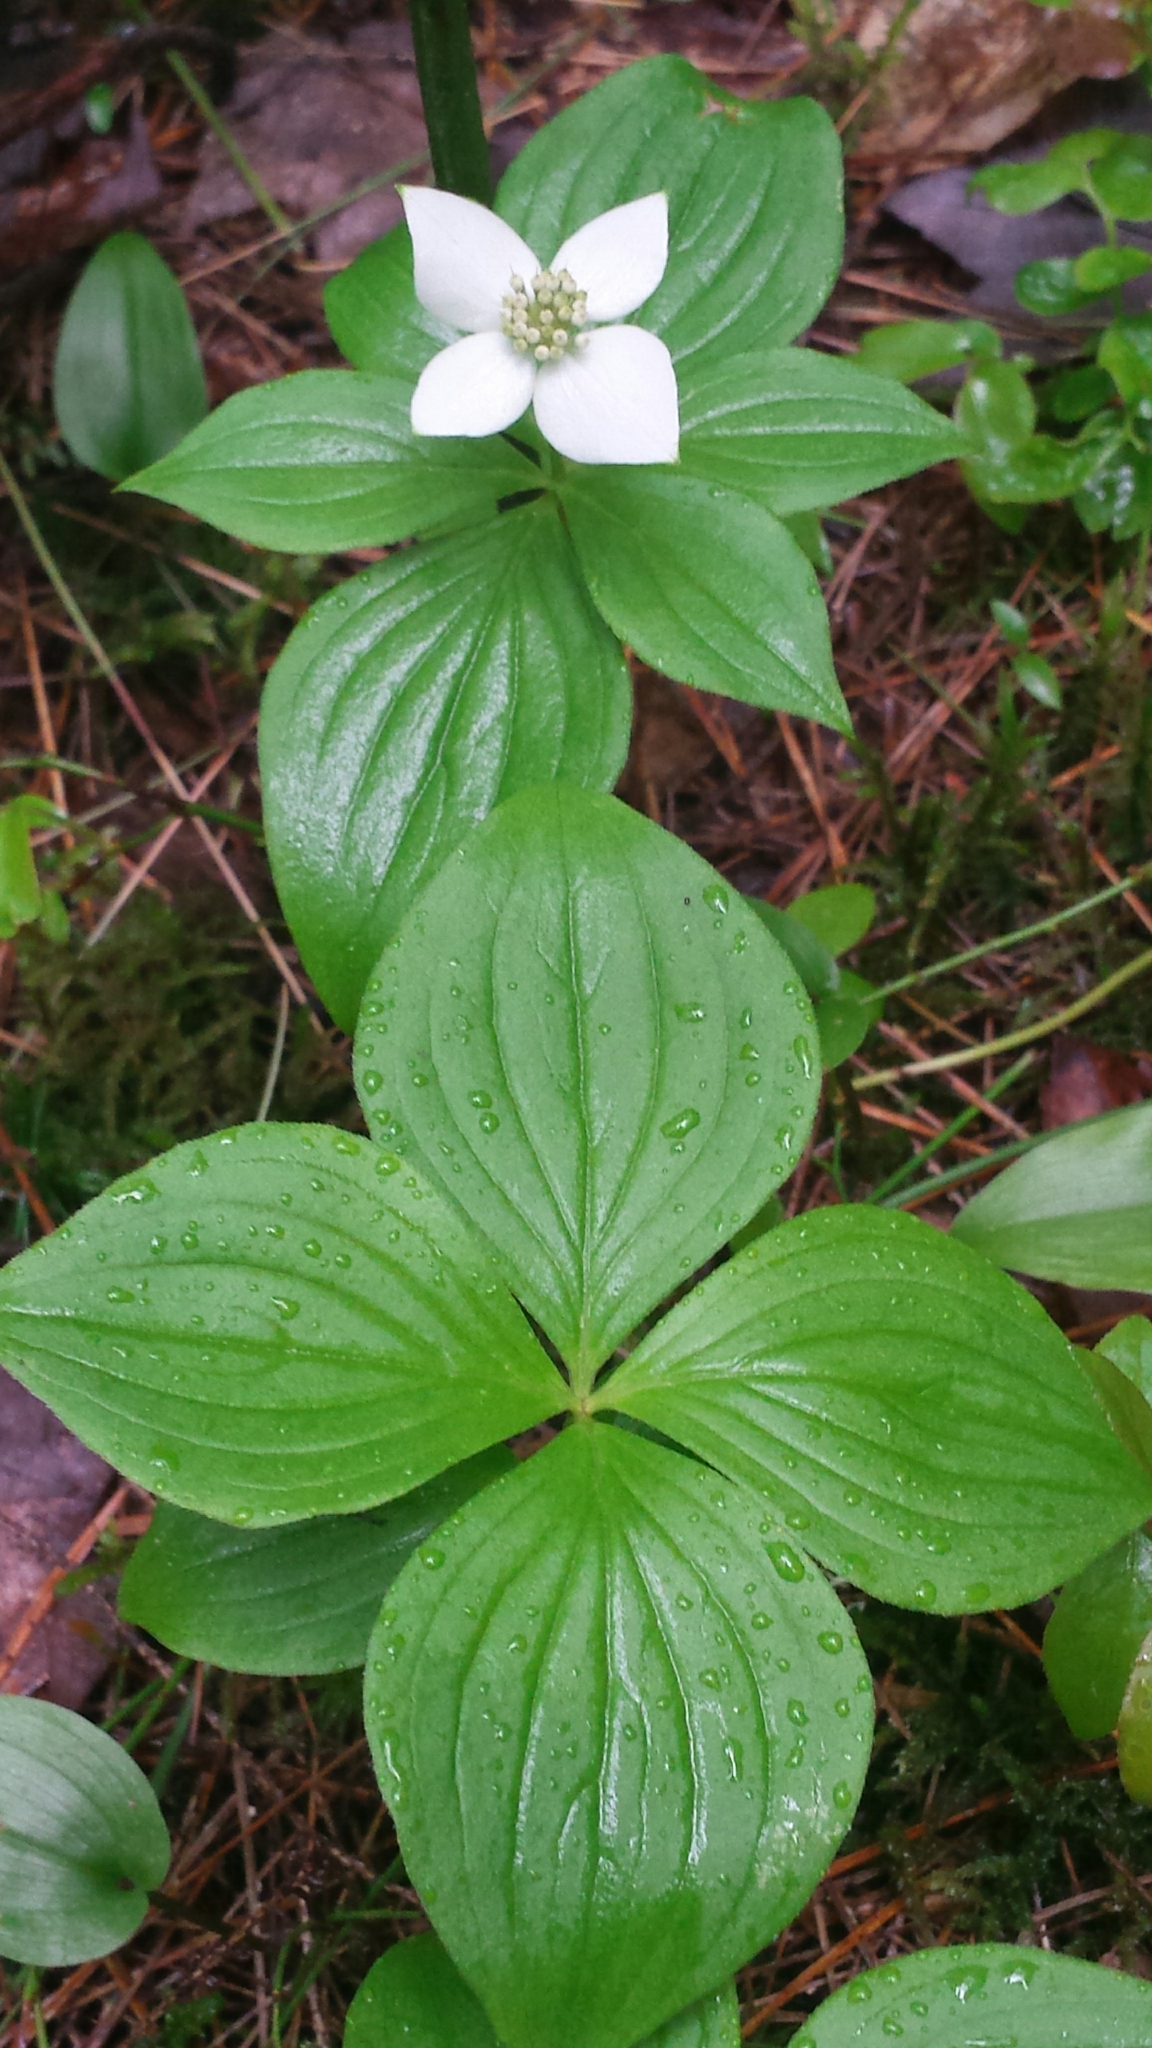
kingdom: Plantae
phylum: Tracheophyta
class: Magnoliopsida
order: Cornales
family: Cornaceae
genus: Cornus
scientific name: Cornus canadensis
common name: Creeping dogwood
